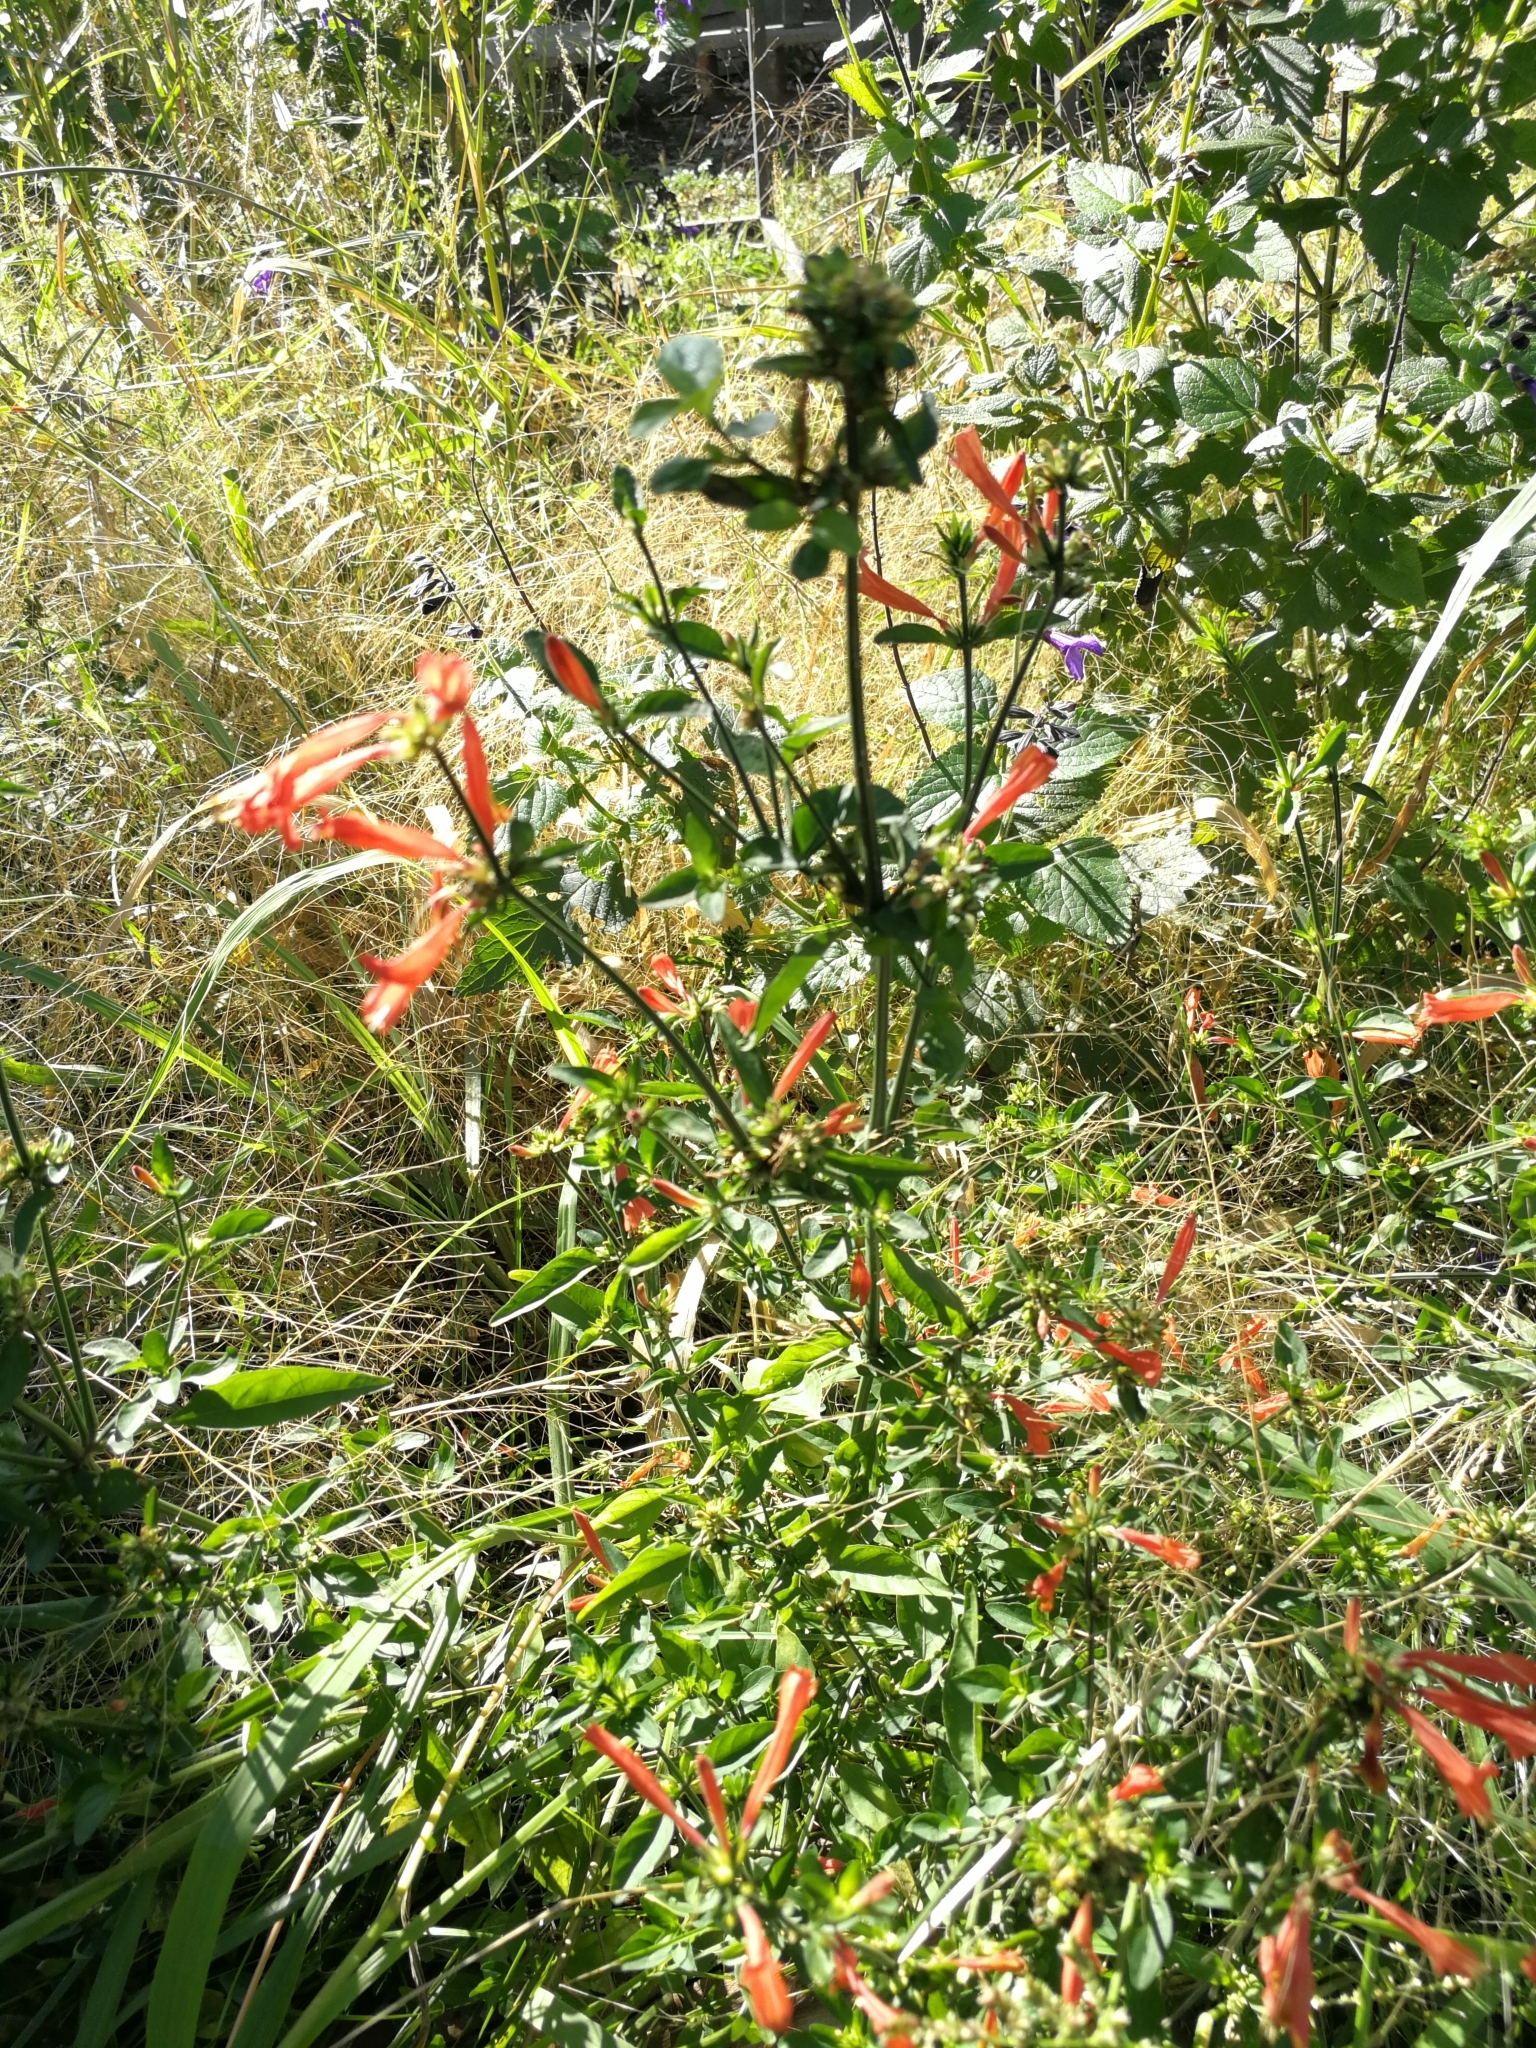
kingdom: Plantae
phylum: Tracheophyta
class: Magnoliopsida
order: Lamiales
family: Acanthaceae
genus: Dicliptera
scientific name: Dicliptera squarrosa
